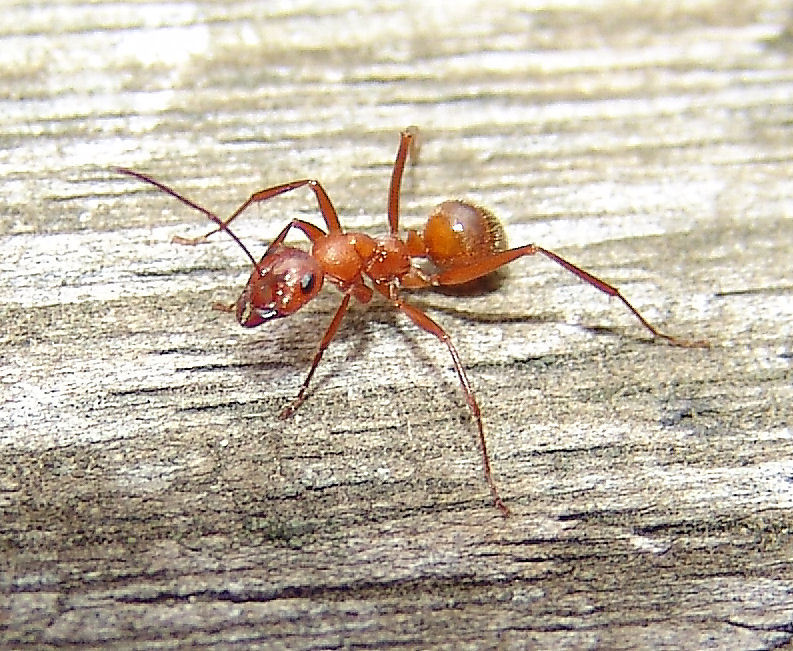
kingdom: Animalia
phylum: Arthropoda
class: Insecta
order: Hymenoptera
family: Formicidae
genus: Formica
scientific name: Formica dolosa
